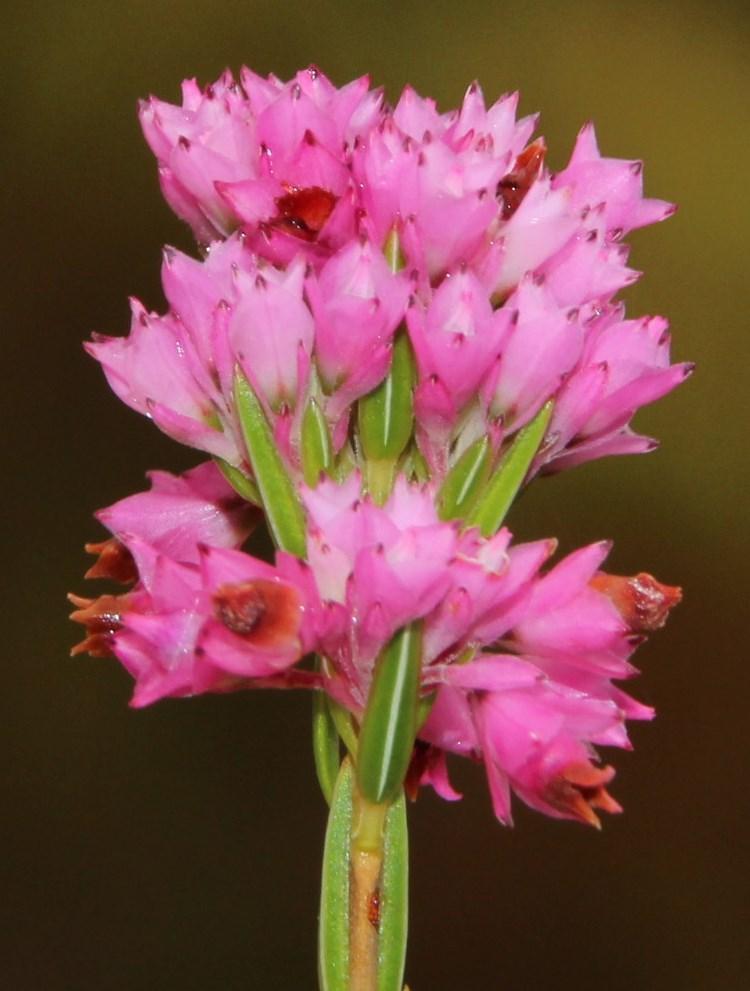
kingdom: Plantae
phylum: Tracheophyta
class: Magnoliopsida
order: Ericales
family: Ericaceae
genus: Erica
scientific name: Erica corifolia
